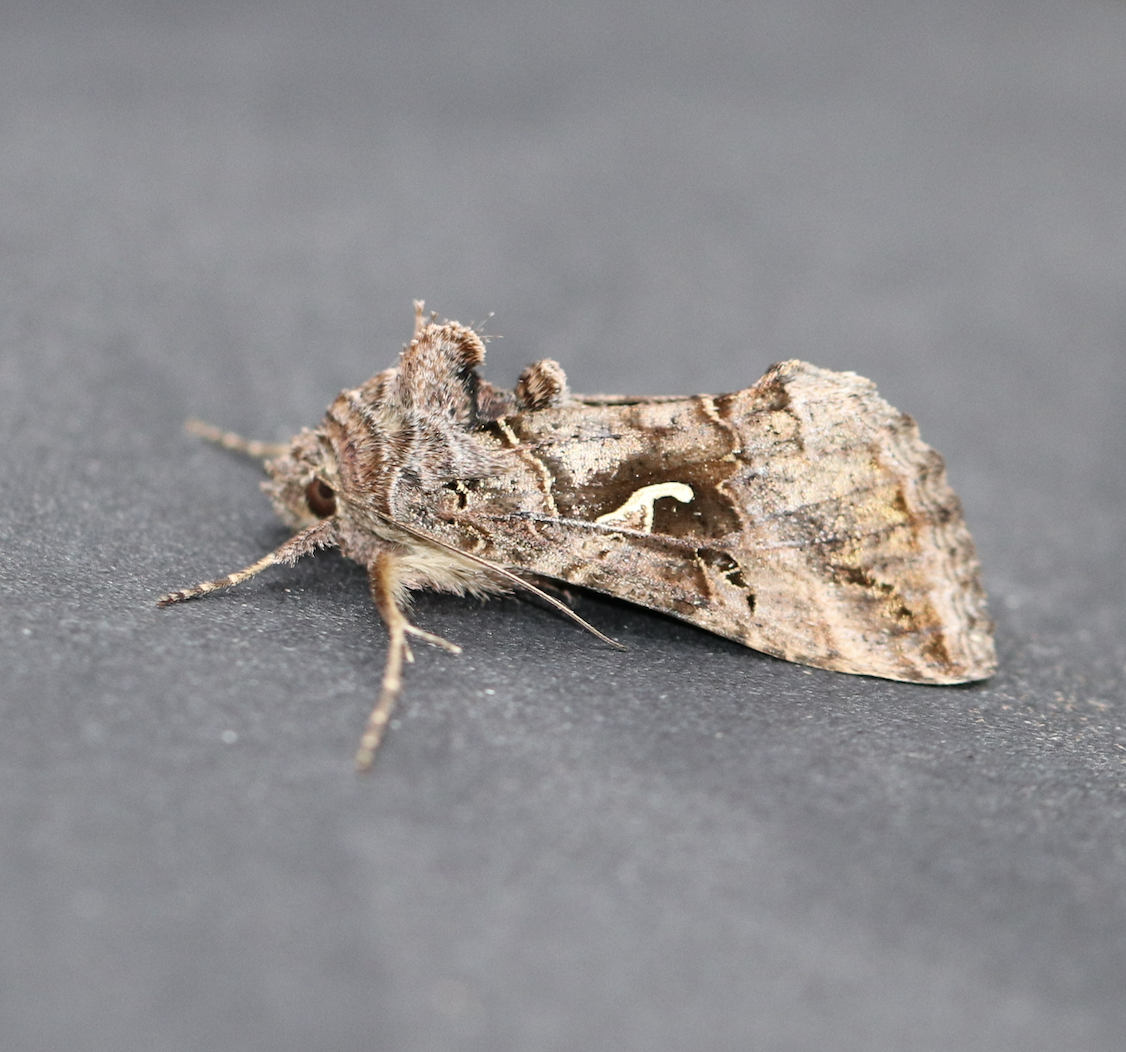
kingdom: Animalia
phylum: Arthropoda
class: Insecta
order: Lepidoptera
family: Noctuidae
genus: Autographa
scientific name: Autographa gamma
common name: Silver y
